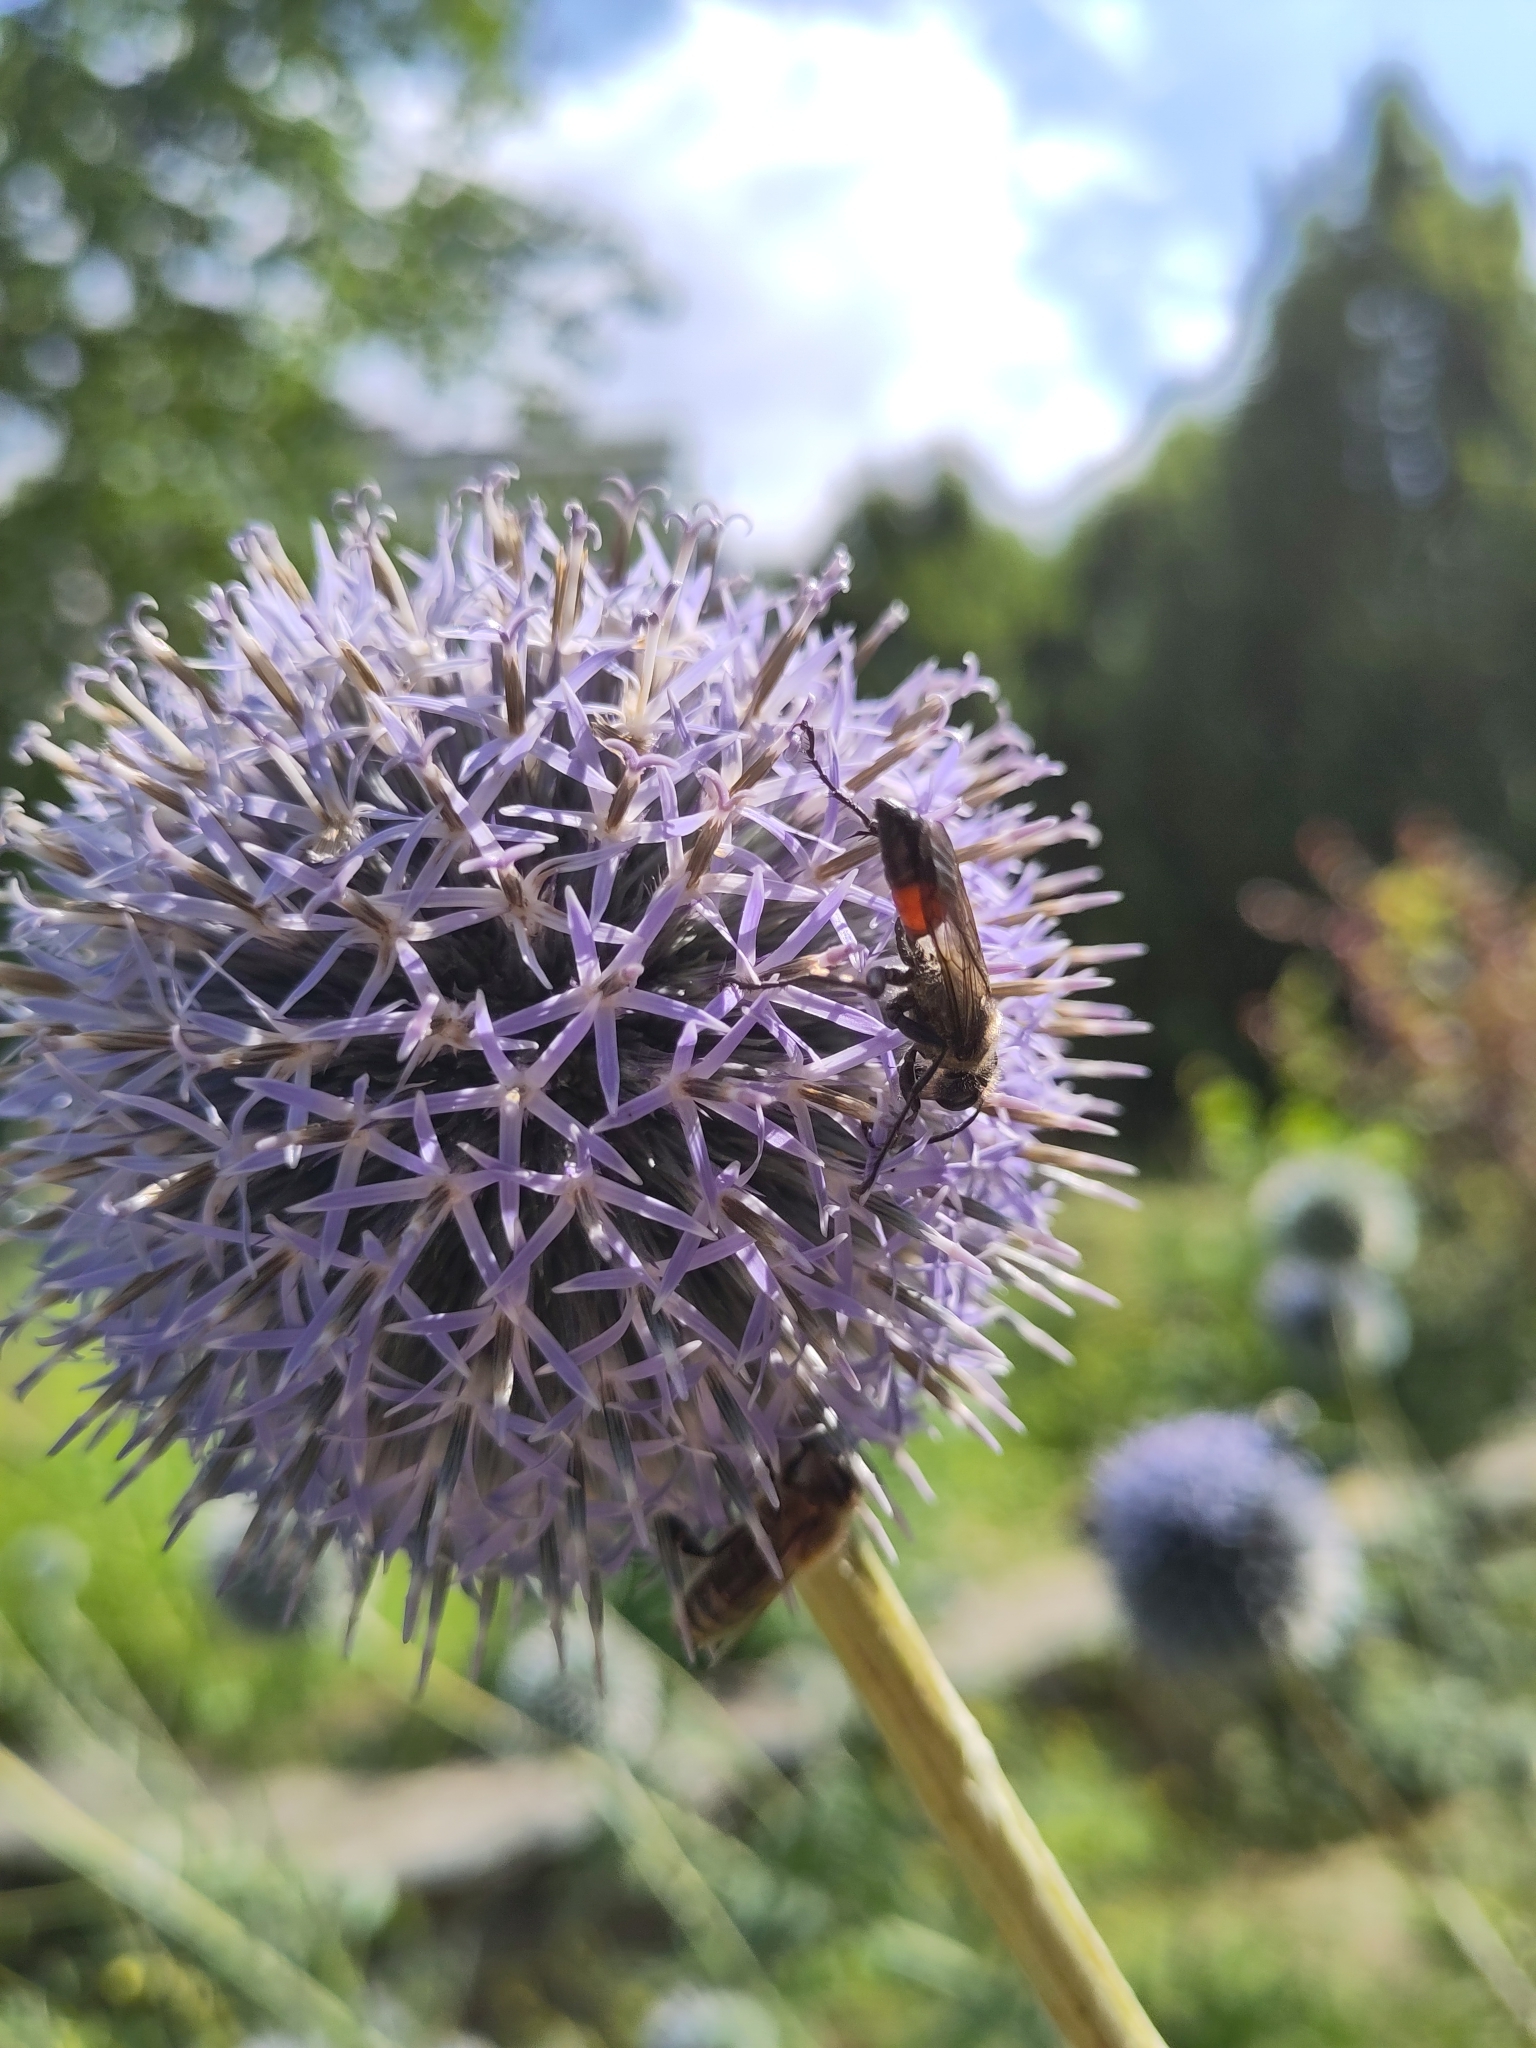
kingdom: Animalia
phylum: Arthropoda
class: Insecta
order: Hymenoptera
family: Sphecidae
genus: Sphex
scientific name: Sphex funerarius
